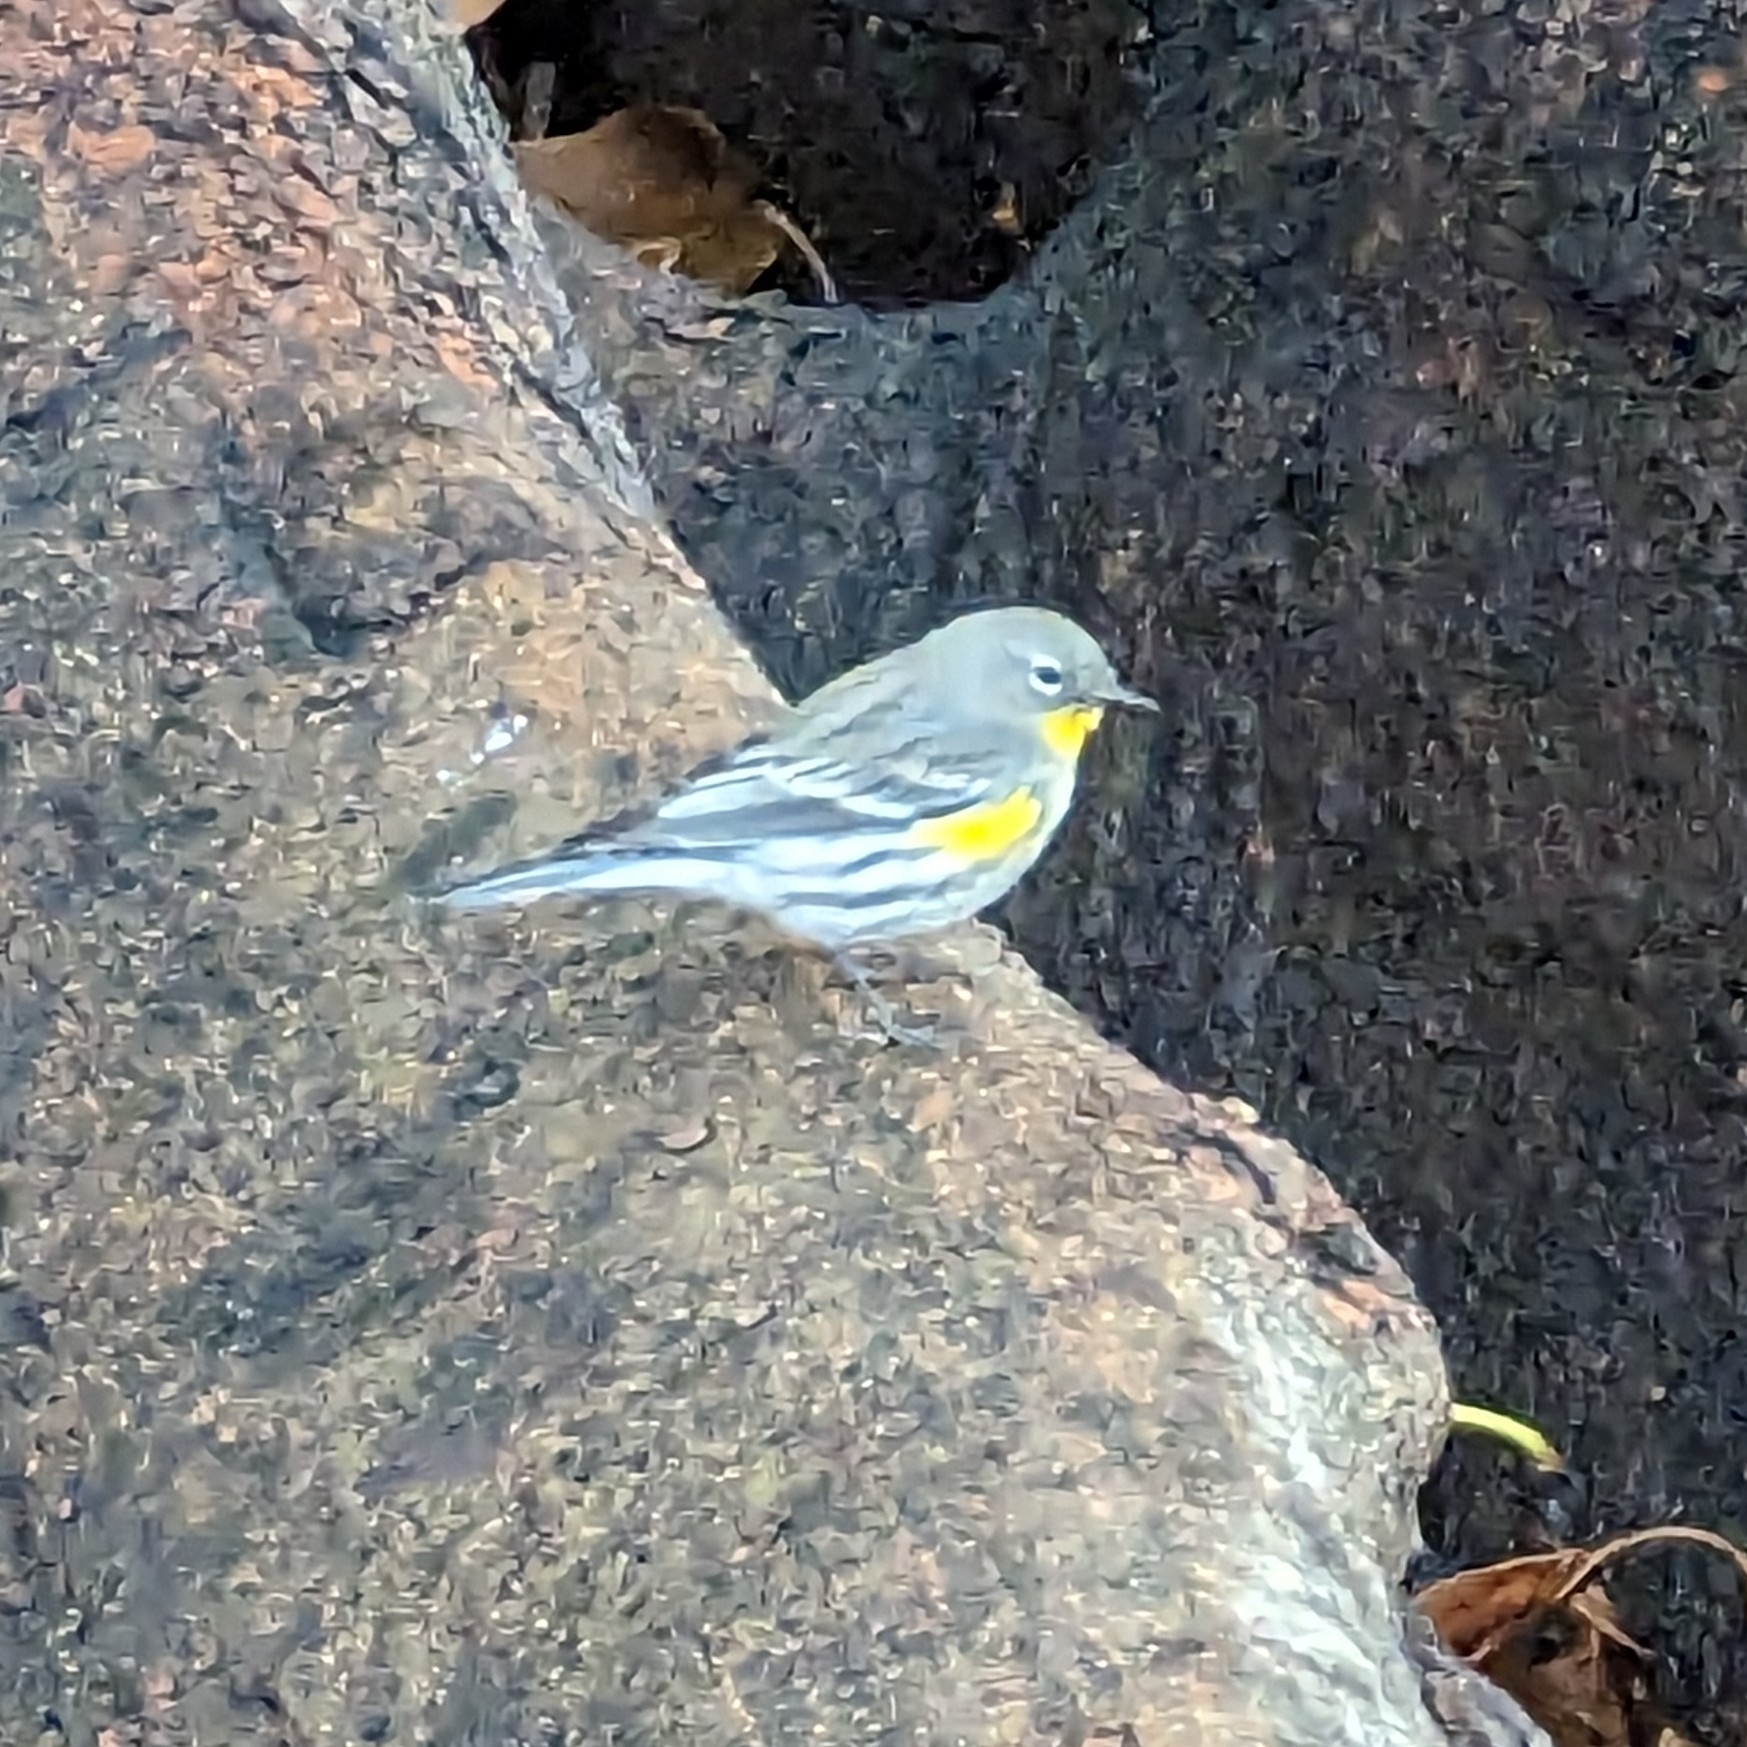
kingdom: Animalia
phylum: Chordata
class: Aves
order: Passeriformes
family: Parulidae
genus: Setophaga
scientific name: Setophaga coronata
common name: Myrtle warbler
